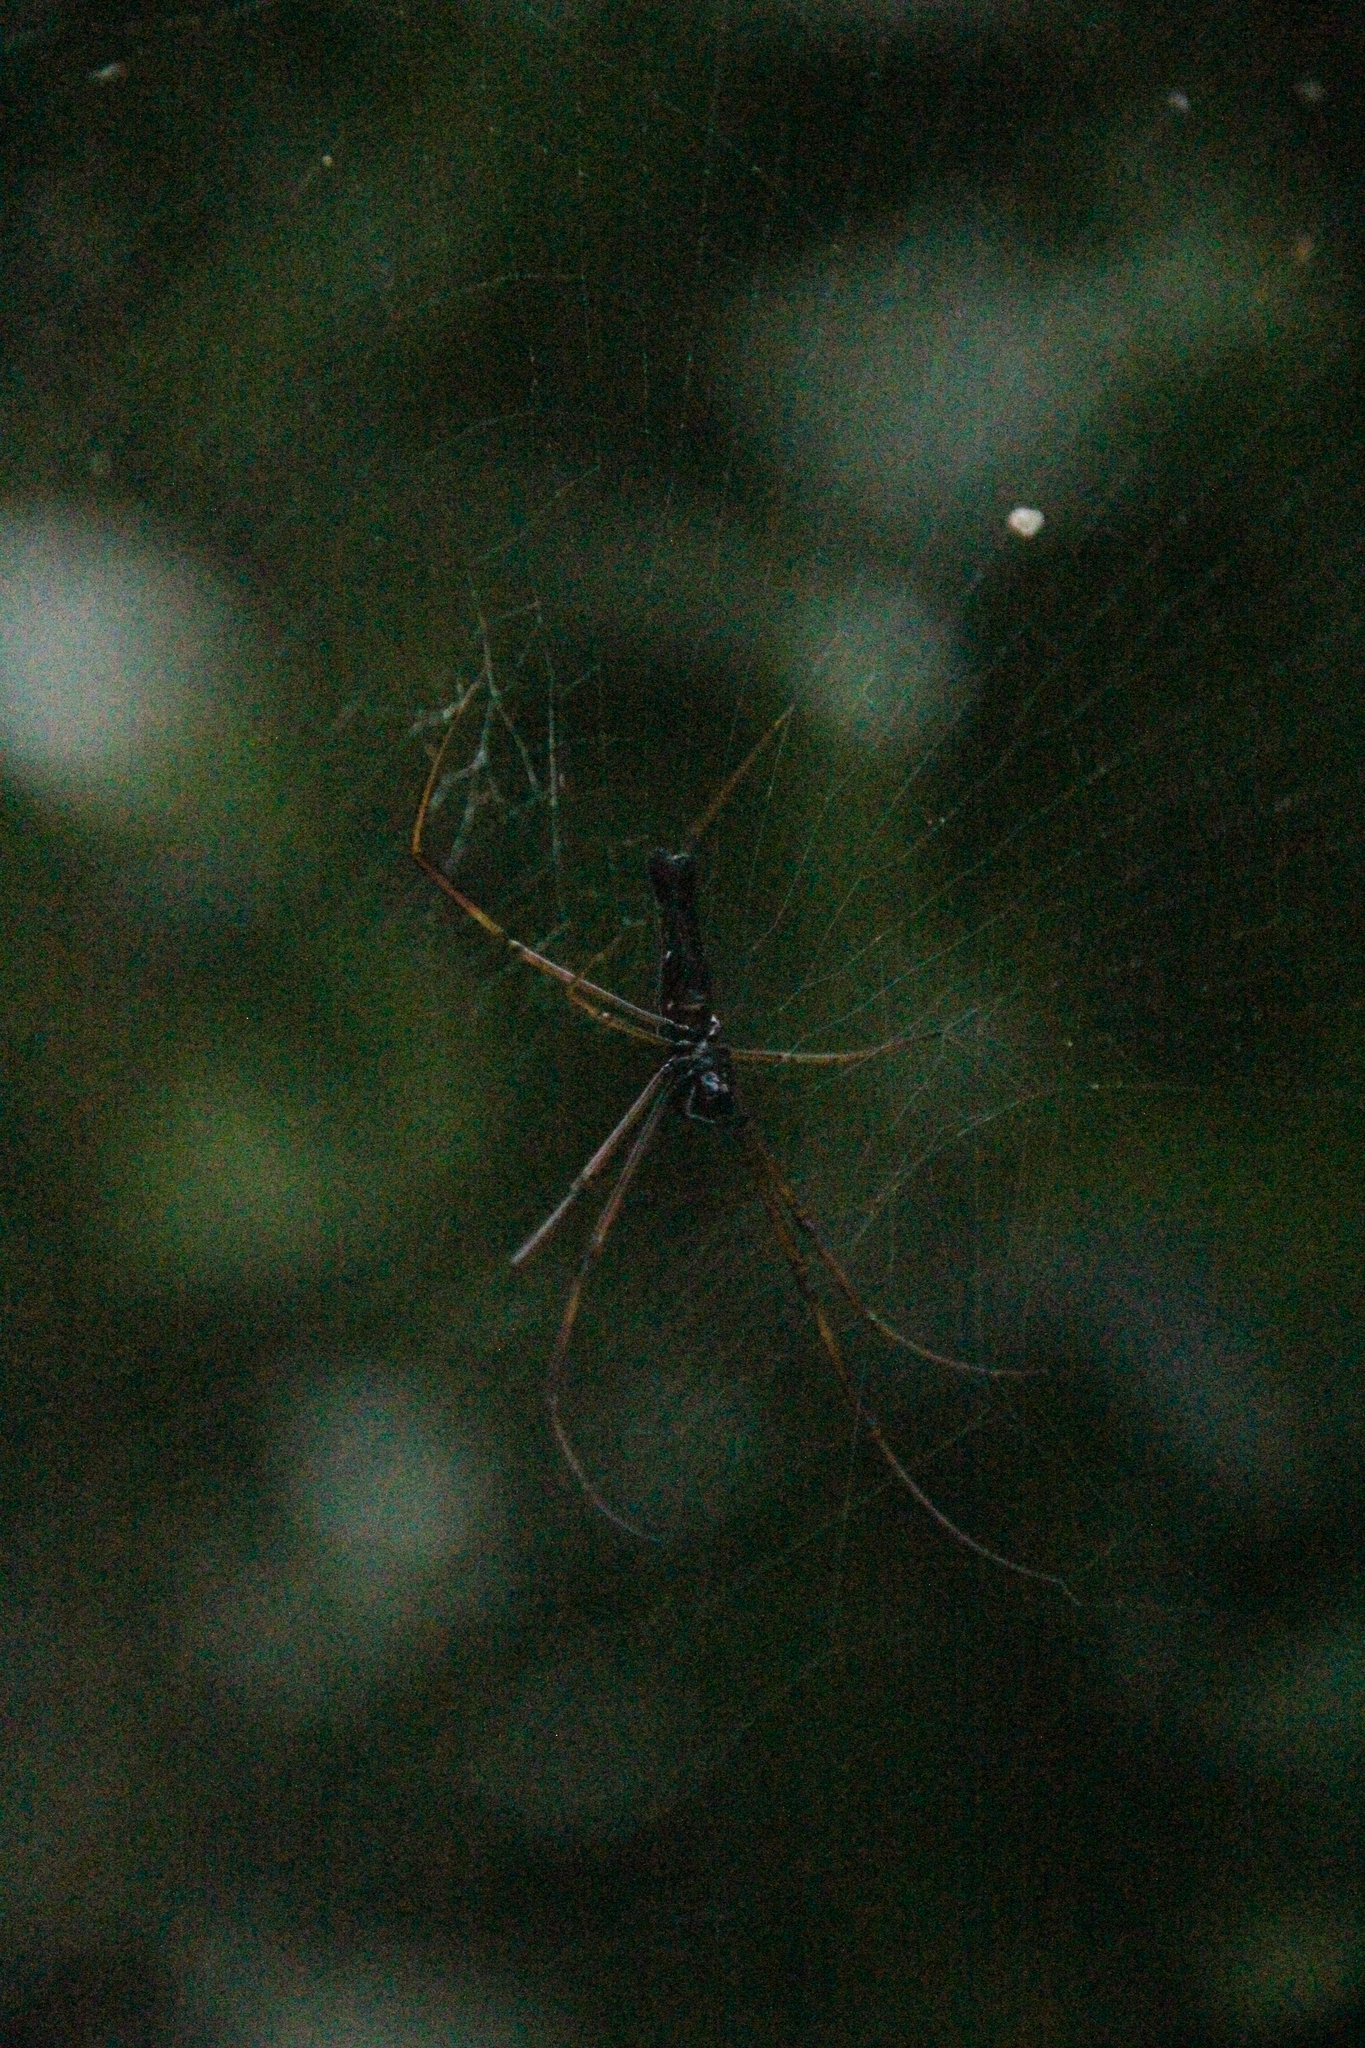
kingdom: Animalia
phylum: Arthropoda
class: Arachnida
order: Araneae
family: Araneidae
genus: Nephila
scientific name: Nephila pilipes
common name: Giant golden orb weaver
